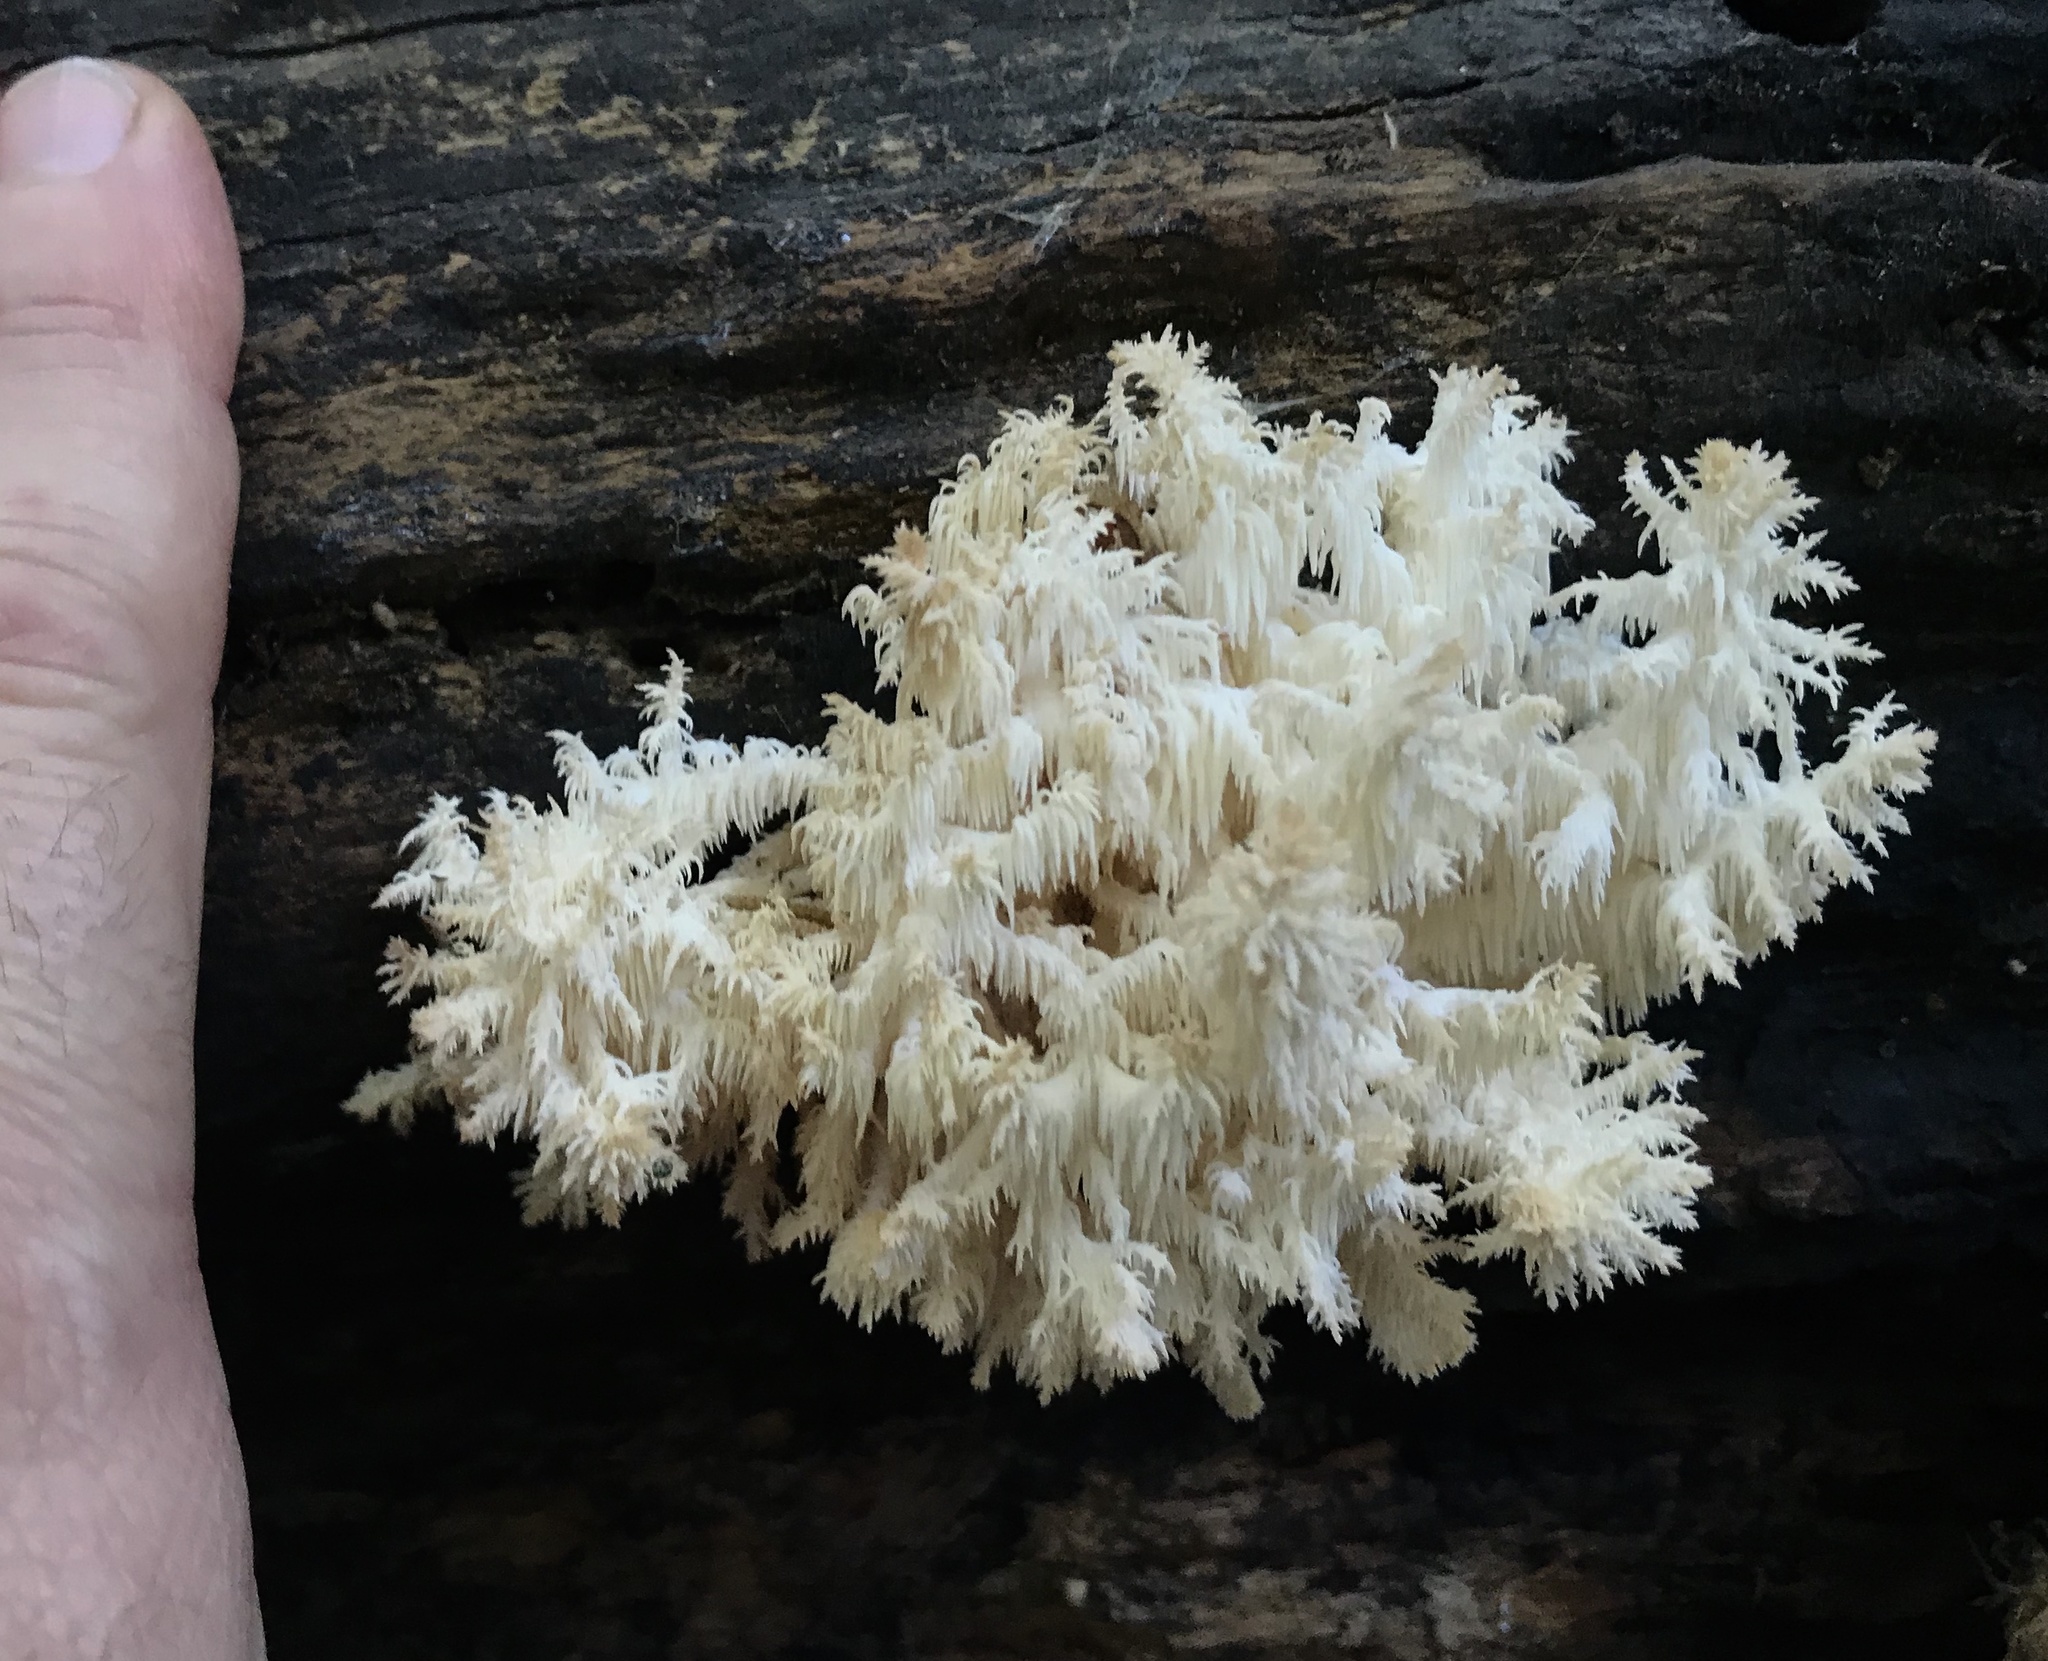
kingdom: Fungi
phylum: Basidiomycota
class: Agaricomycetes
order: Russulales
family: Hericiaceae
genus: Hericium
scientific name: Hericium coralloides
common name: Coral tooth
